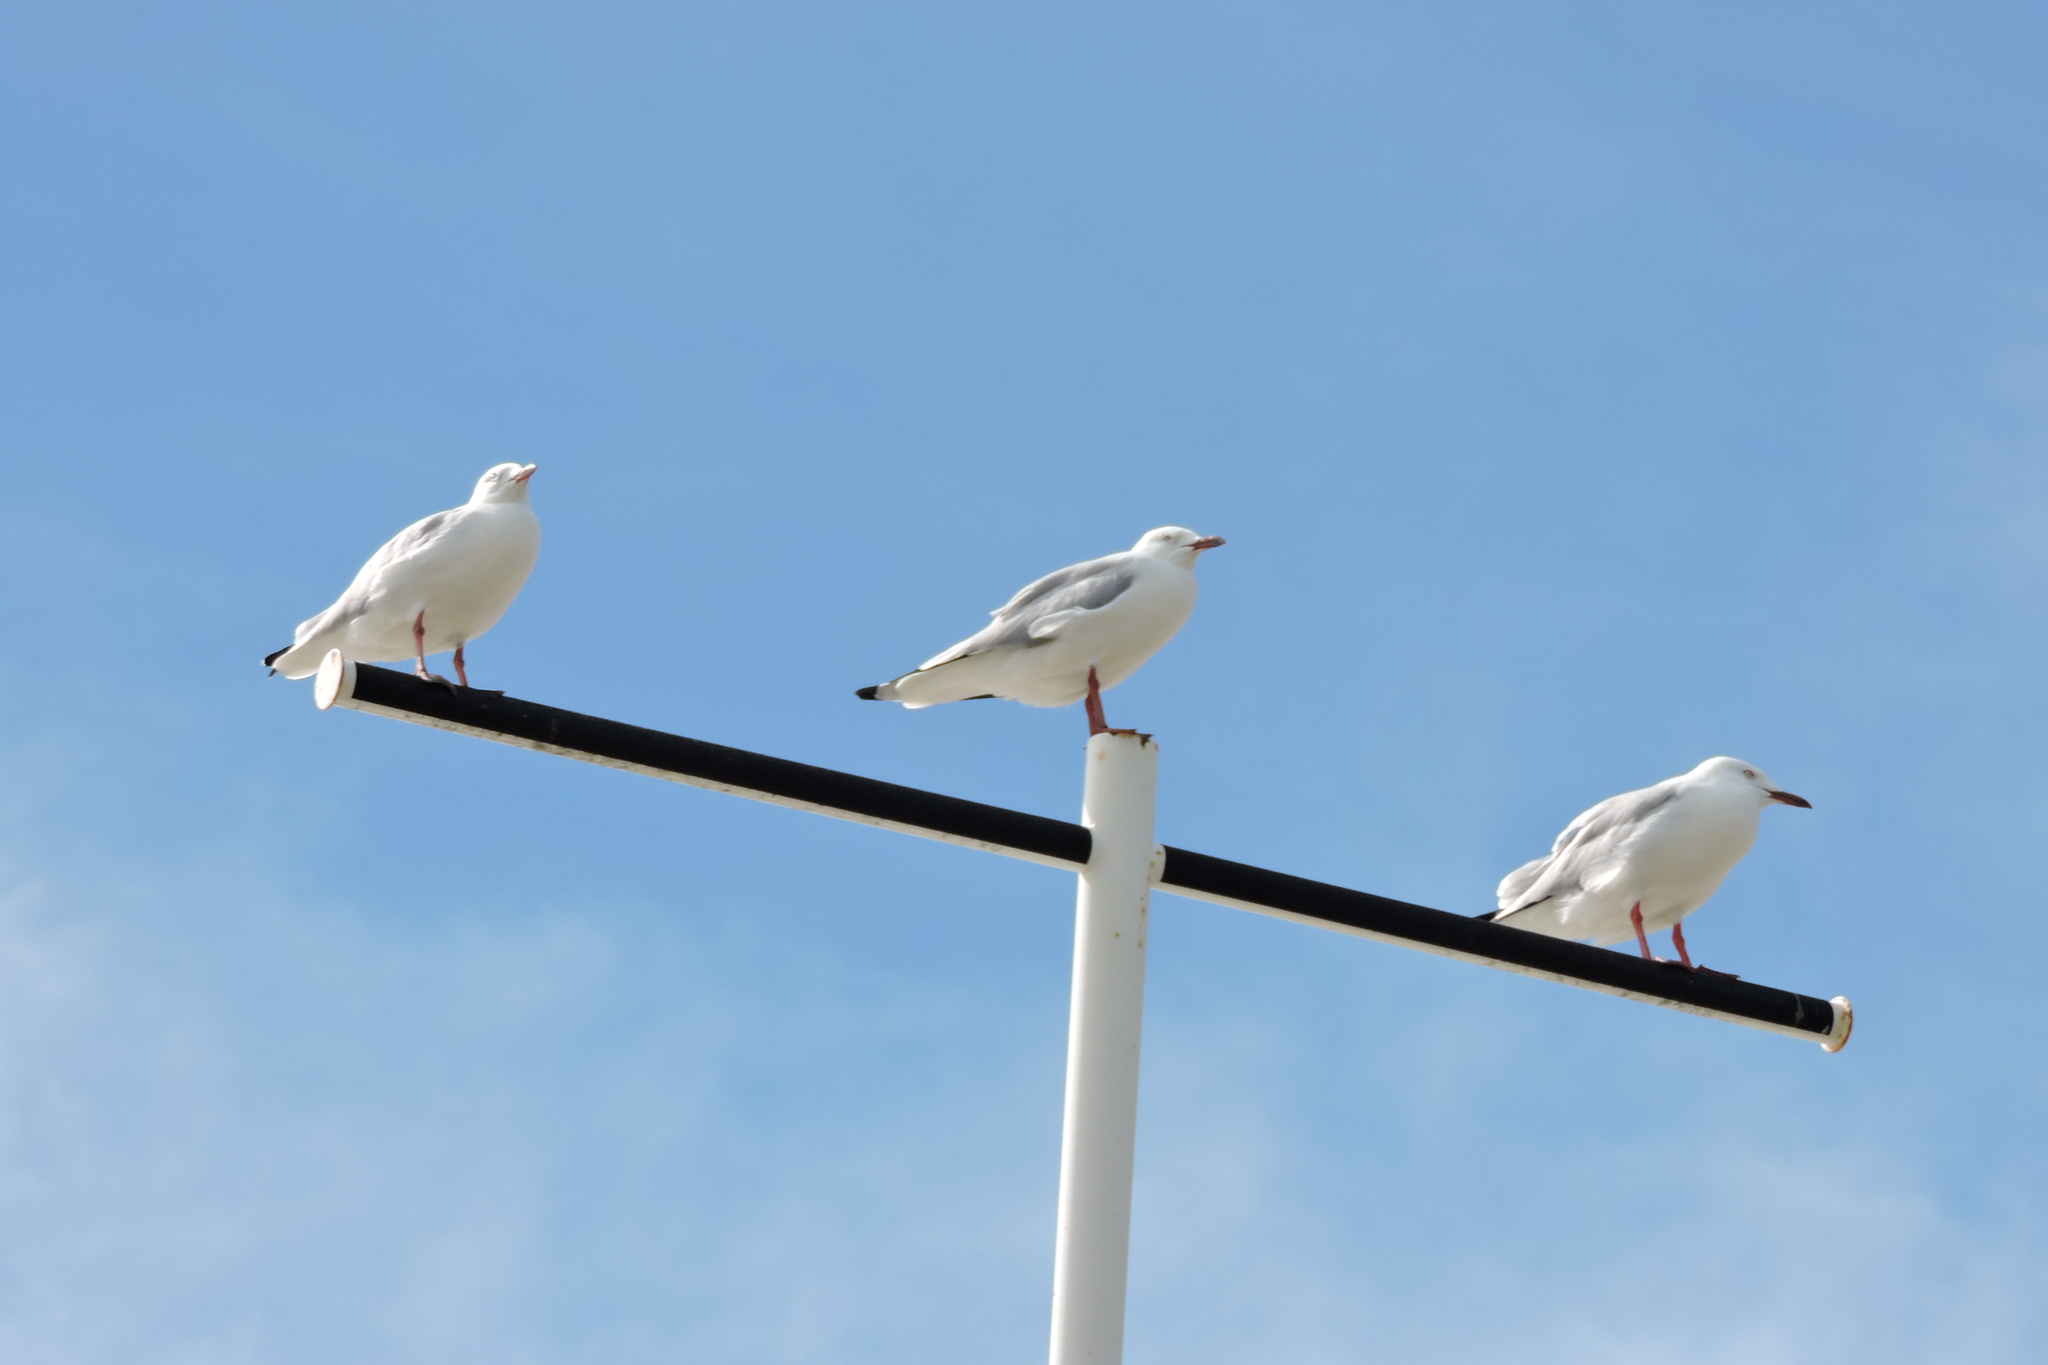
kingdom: Animalia
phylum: Chordata
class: Aves
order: Charadriiformes
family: Laridae
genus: Chroicocephalus
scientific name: Chroicocephalus novaehollandiae
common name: Silver gull
